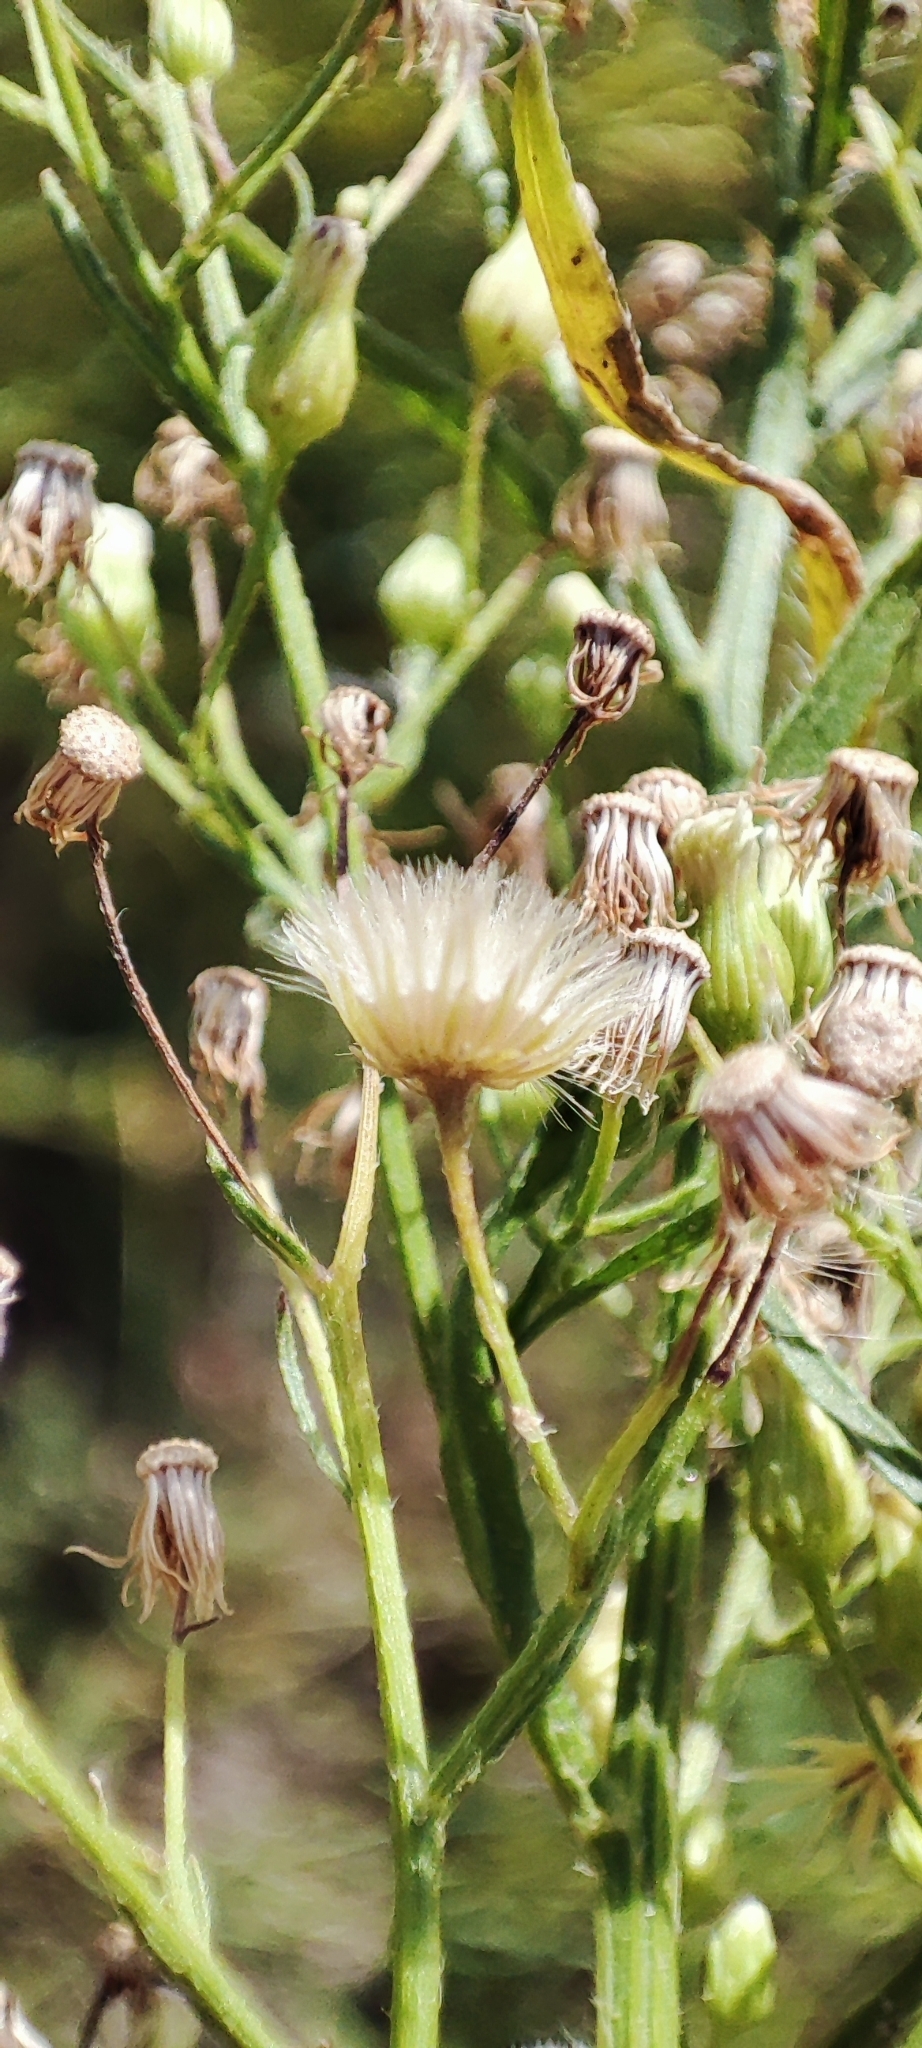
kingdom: Plantae
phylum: Tracheophyta
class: Magnoliopsida
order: Asterales
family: Asteraceae
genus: Erigeron
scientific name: Erigeron canadensis
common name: Canadian fleabane
